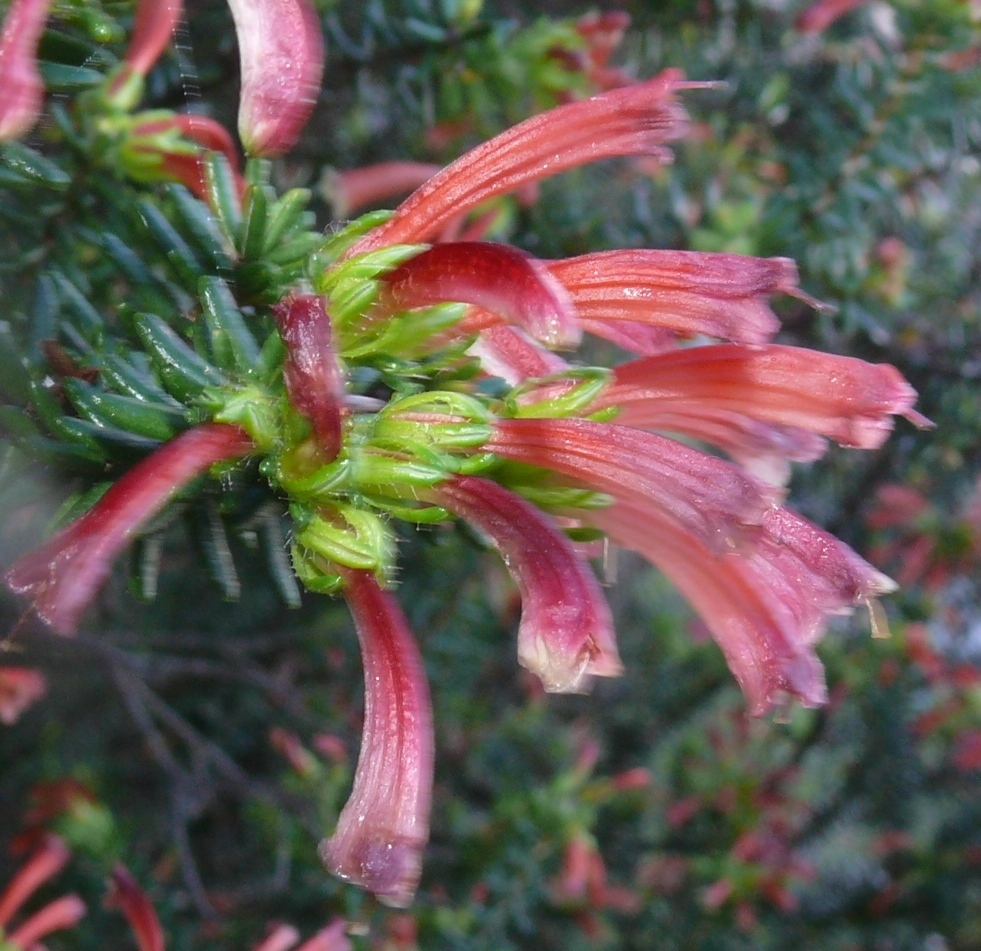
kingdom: Plantae
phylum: Tracheophyta
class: Magnoliopsida
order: Ericales
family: Ericaceae
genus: Erica
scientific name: Erica glandulosa
